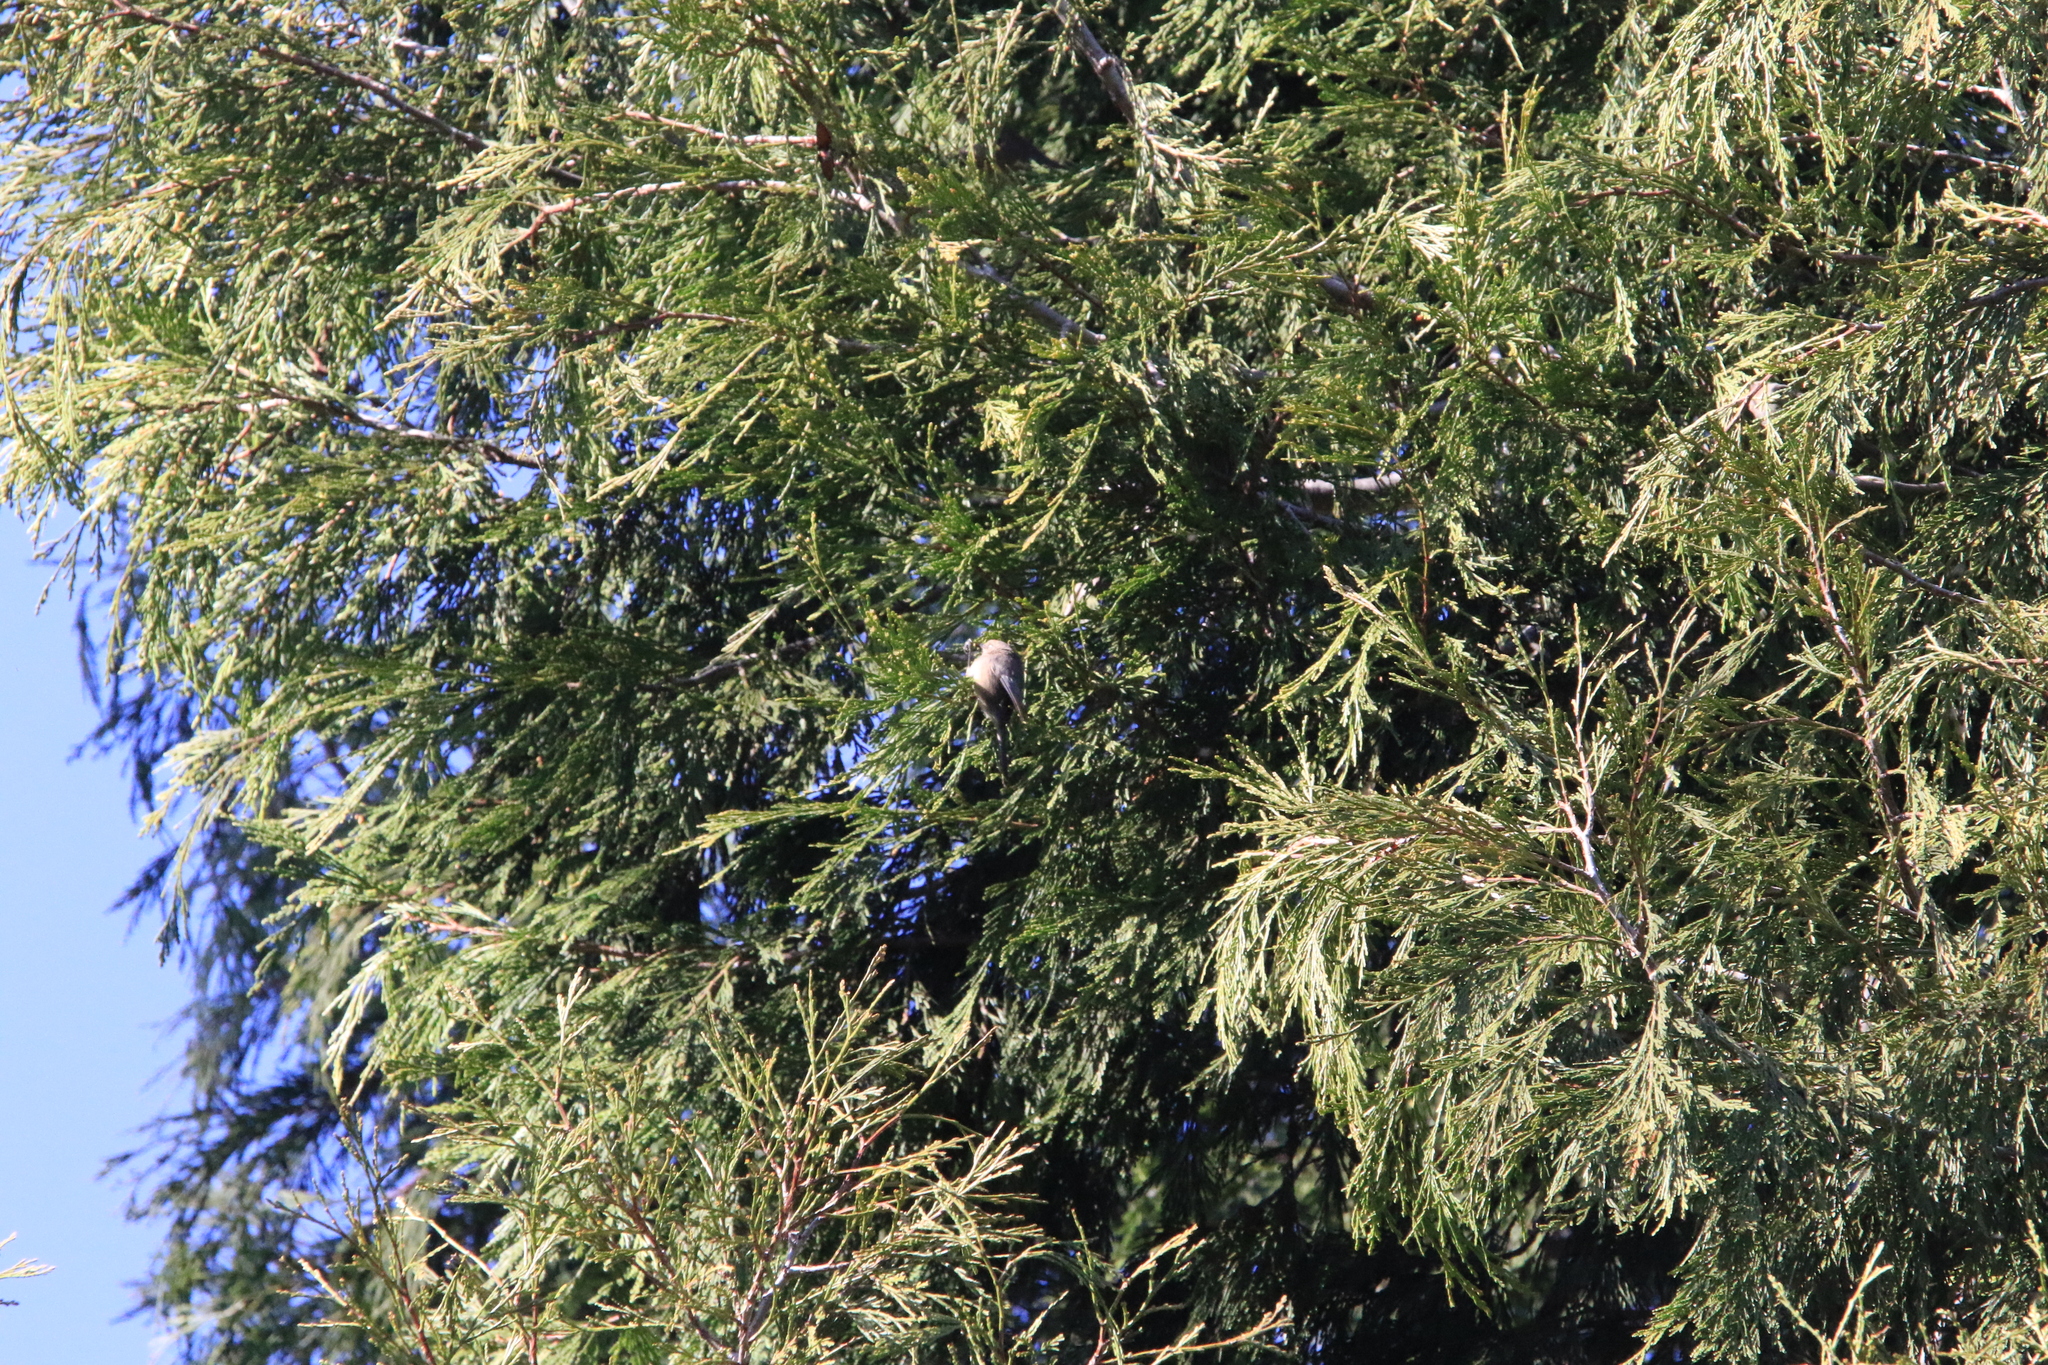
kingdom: Animalia
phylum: Chordata
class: Aves
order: Passeriformes
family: Aegithalidae
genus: Psaltriparus
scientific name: Psaltriparus minimus
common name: American bushtit
